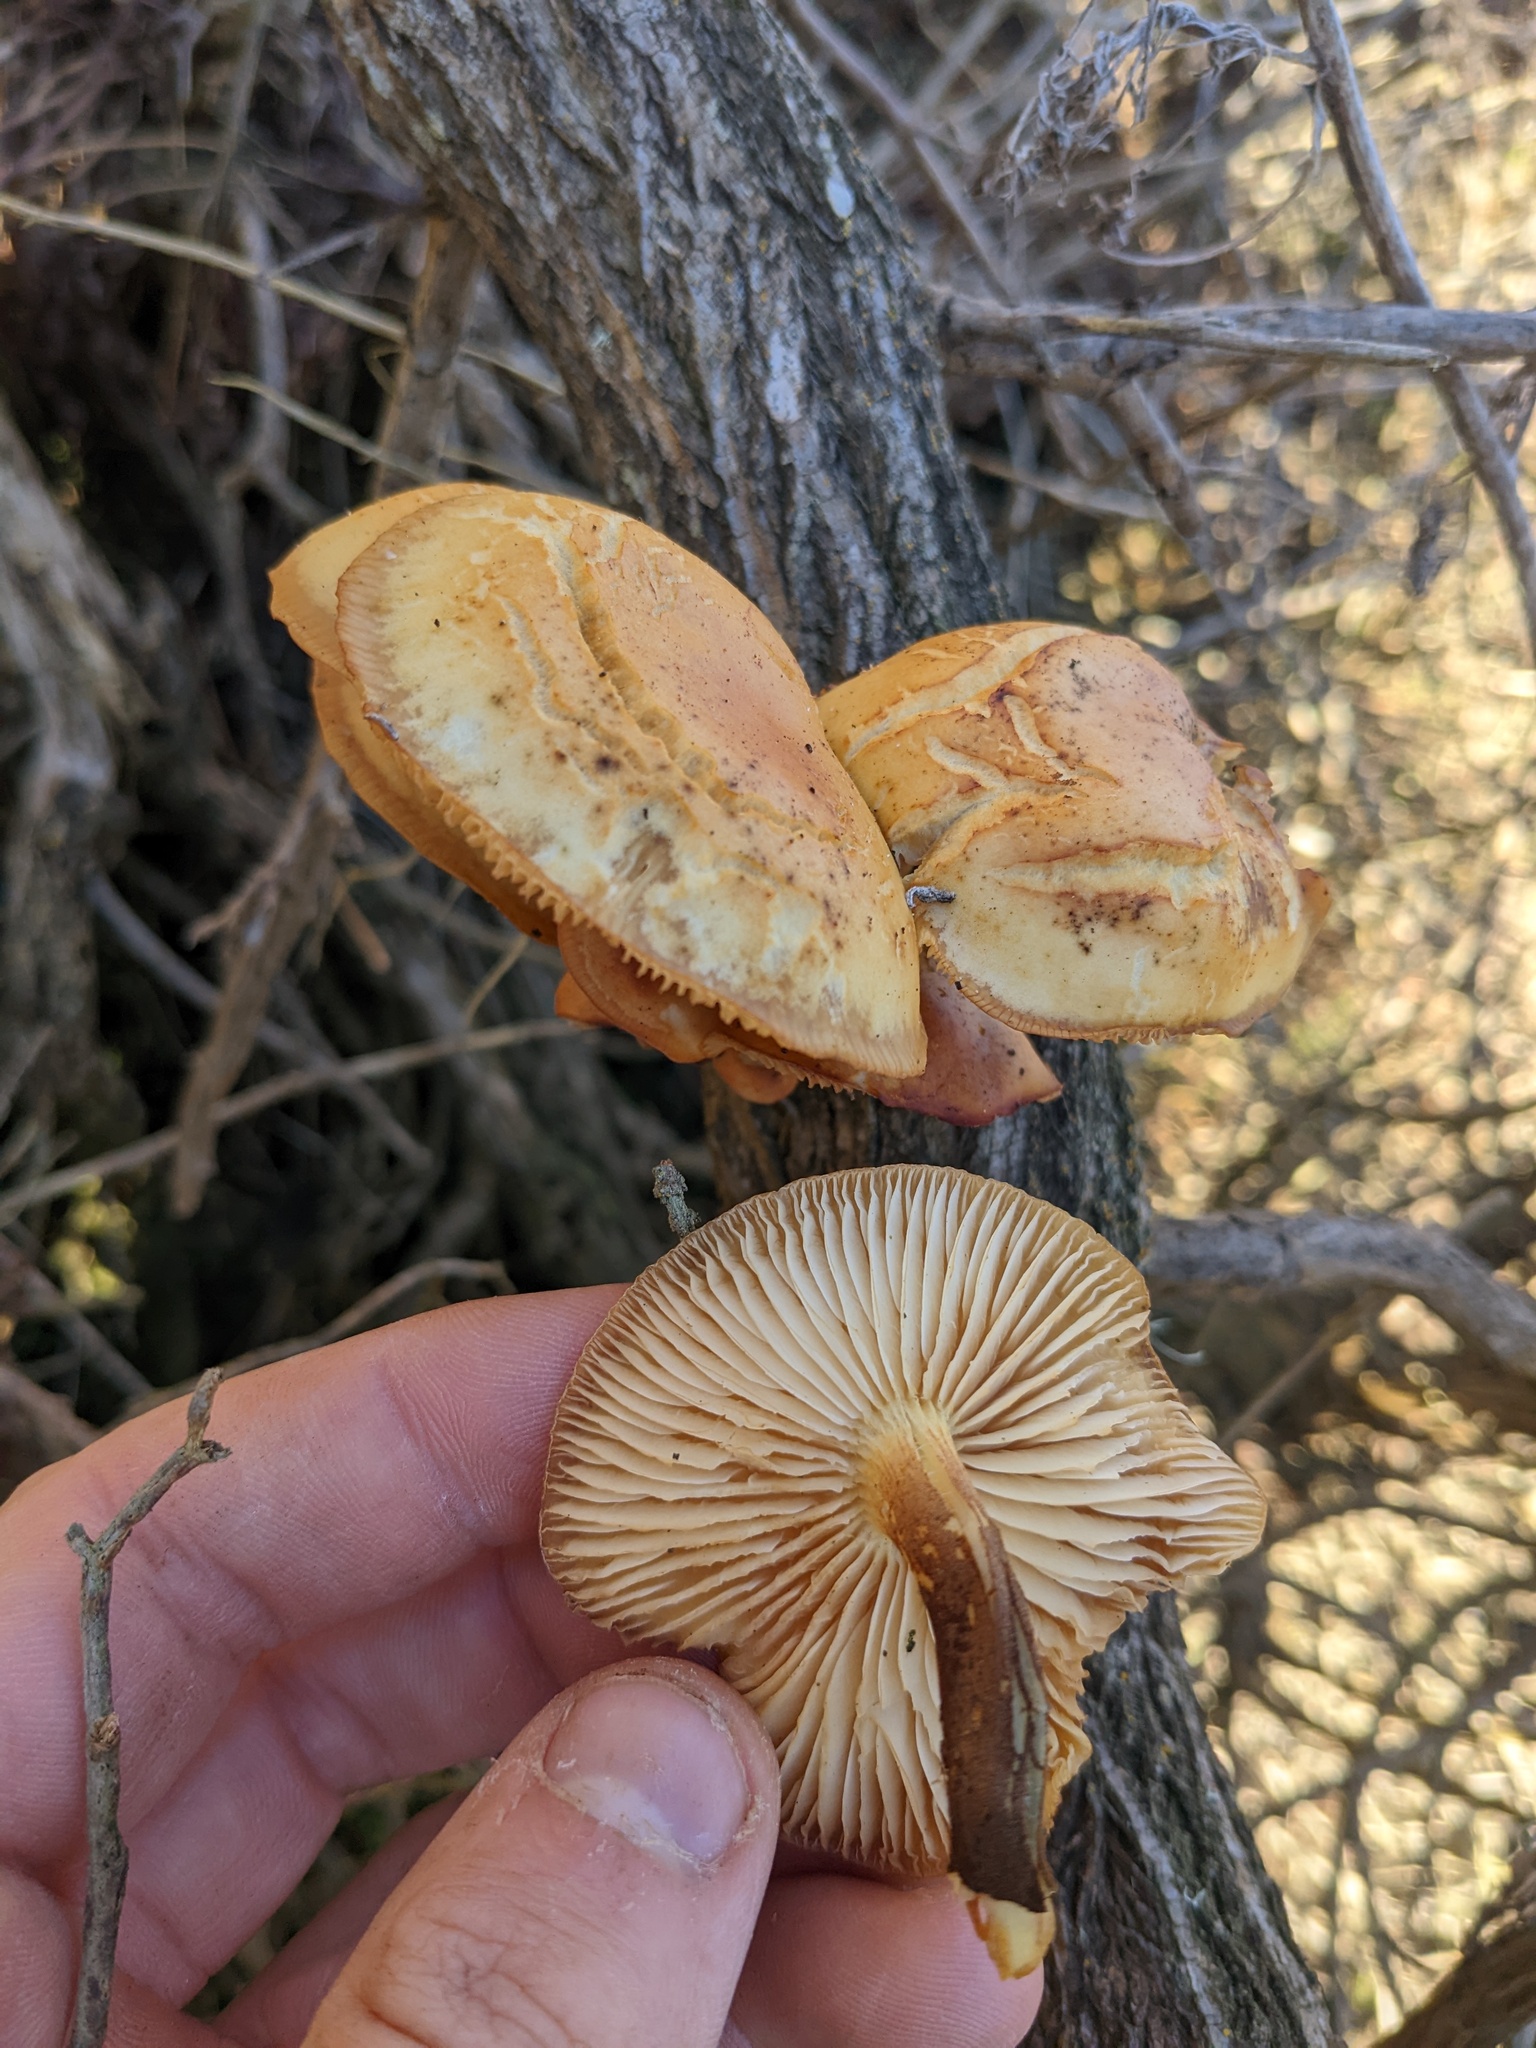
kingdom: Fungi
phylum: Basidiomycota
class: Agaricomycetes
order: Agaricales
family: Physalacriaceae
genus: Flammulina
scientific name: Flammulina lupinicola
